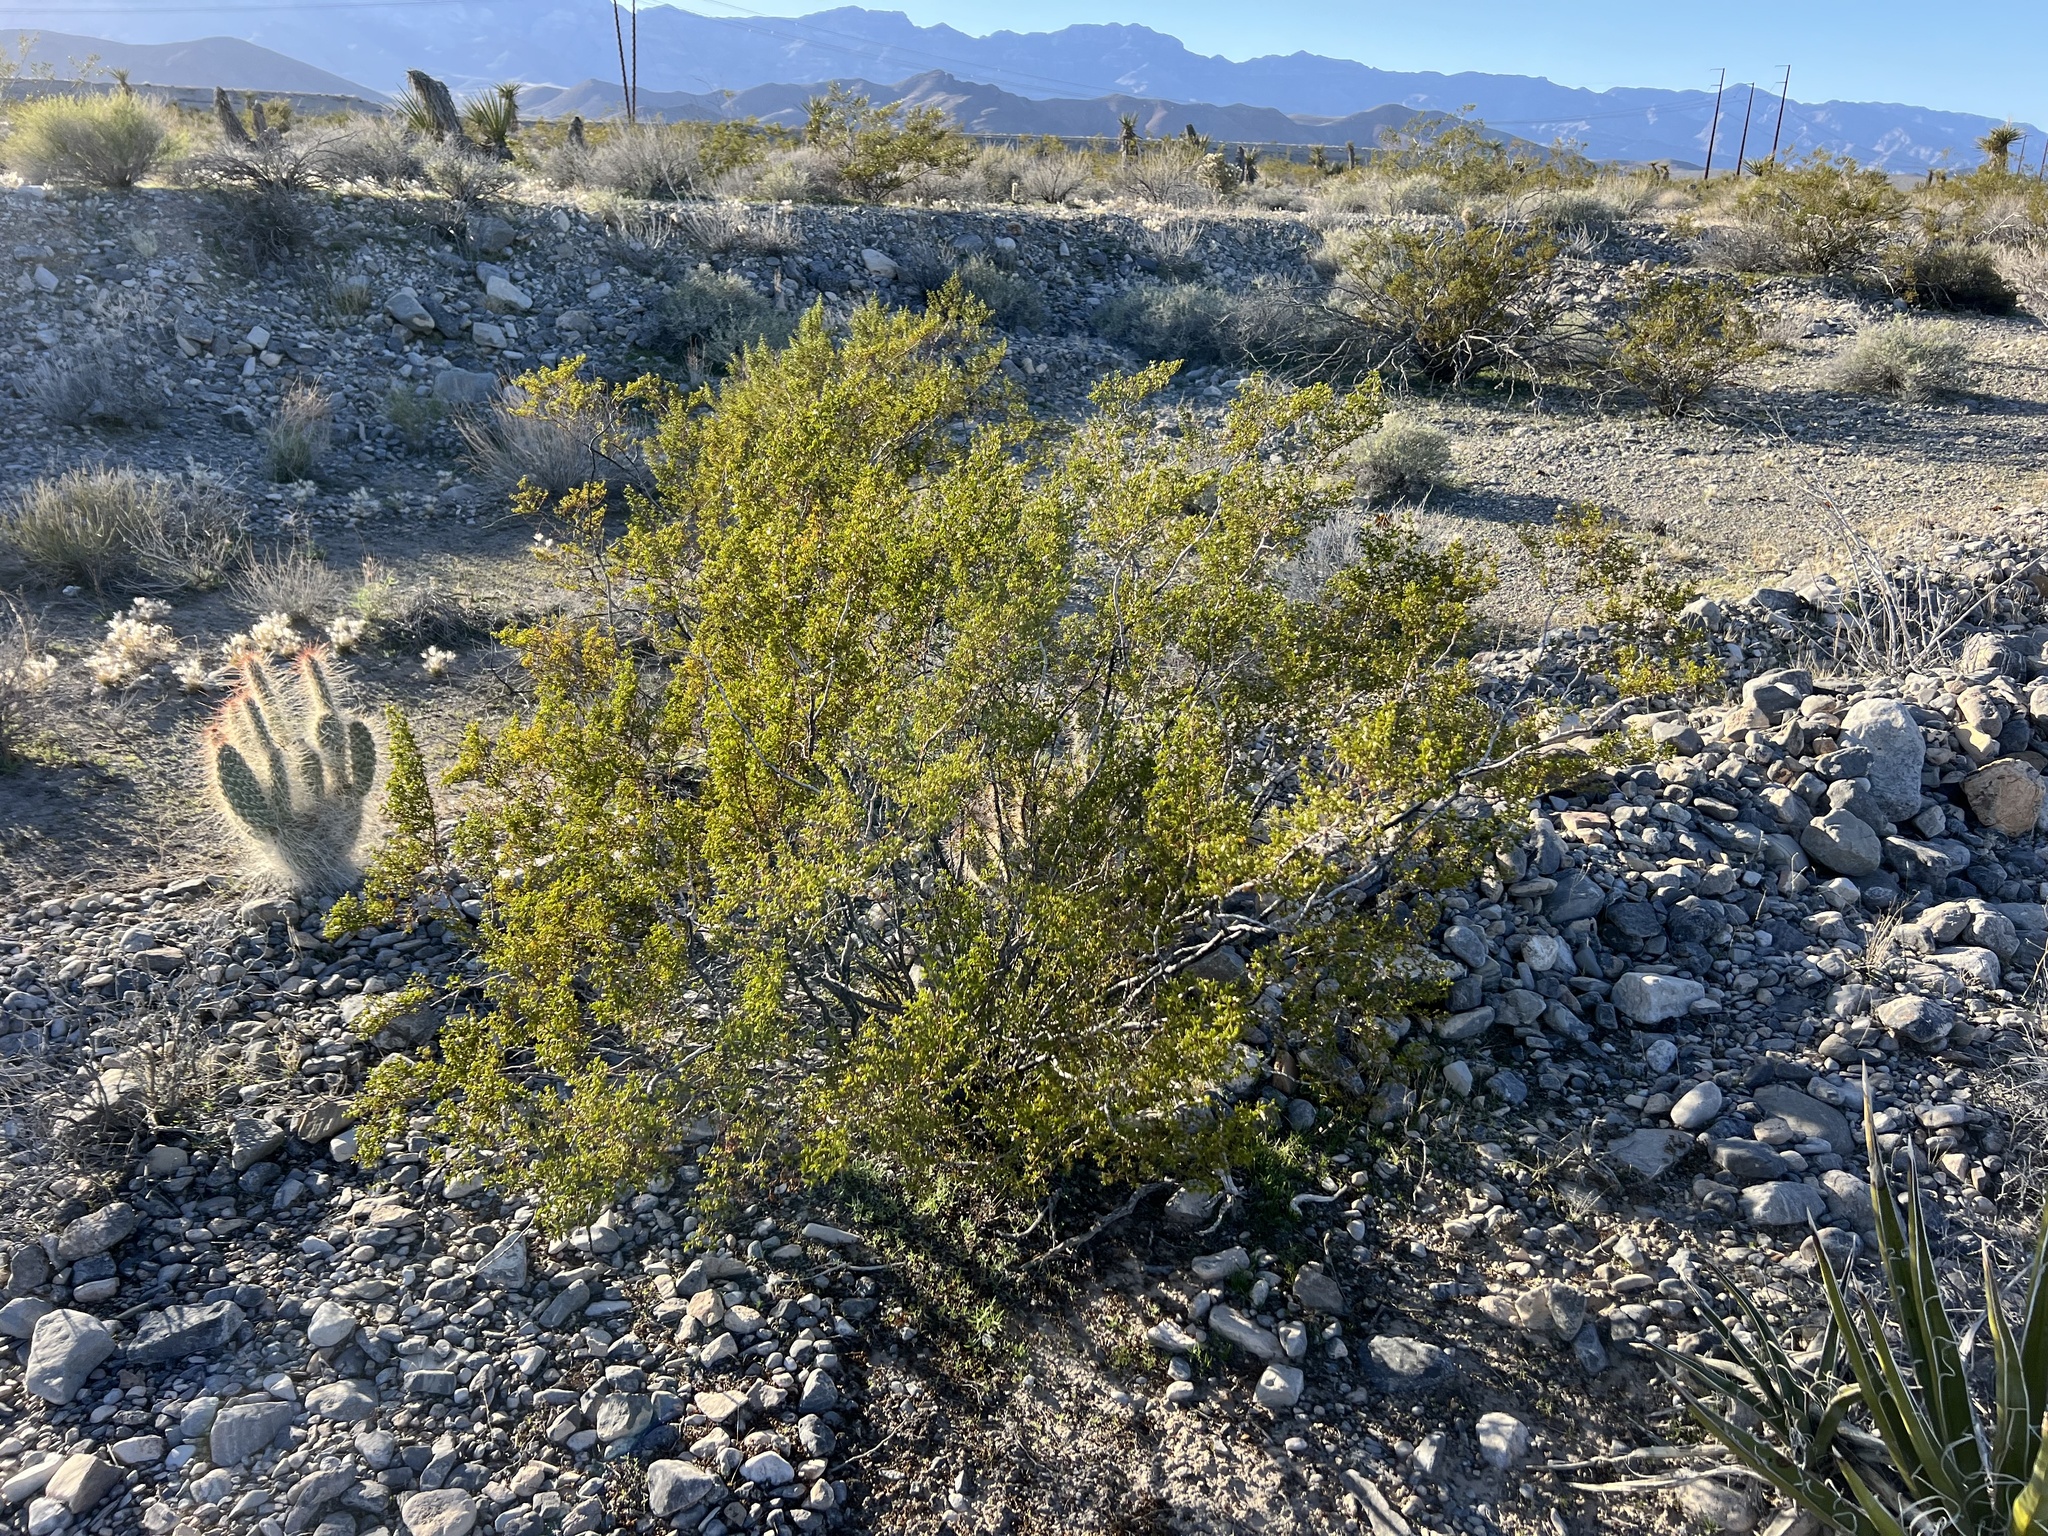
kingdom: Plantae
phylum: Tracheophyta
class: Magnoliopsida
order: Zygophyllales
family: Zygophyllaceae
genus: Larrea
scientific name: Larrea tridentata
